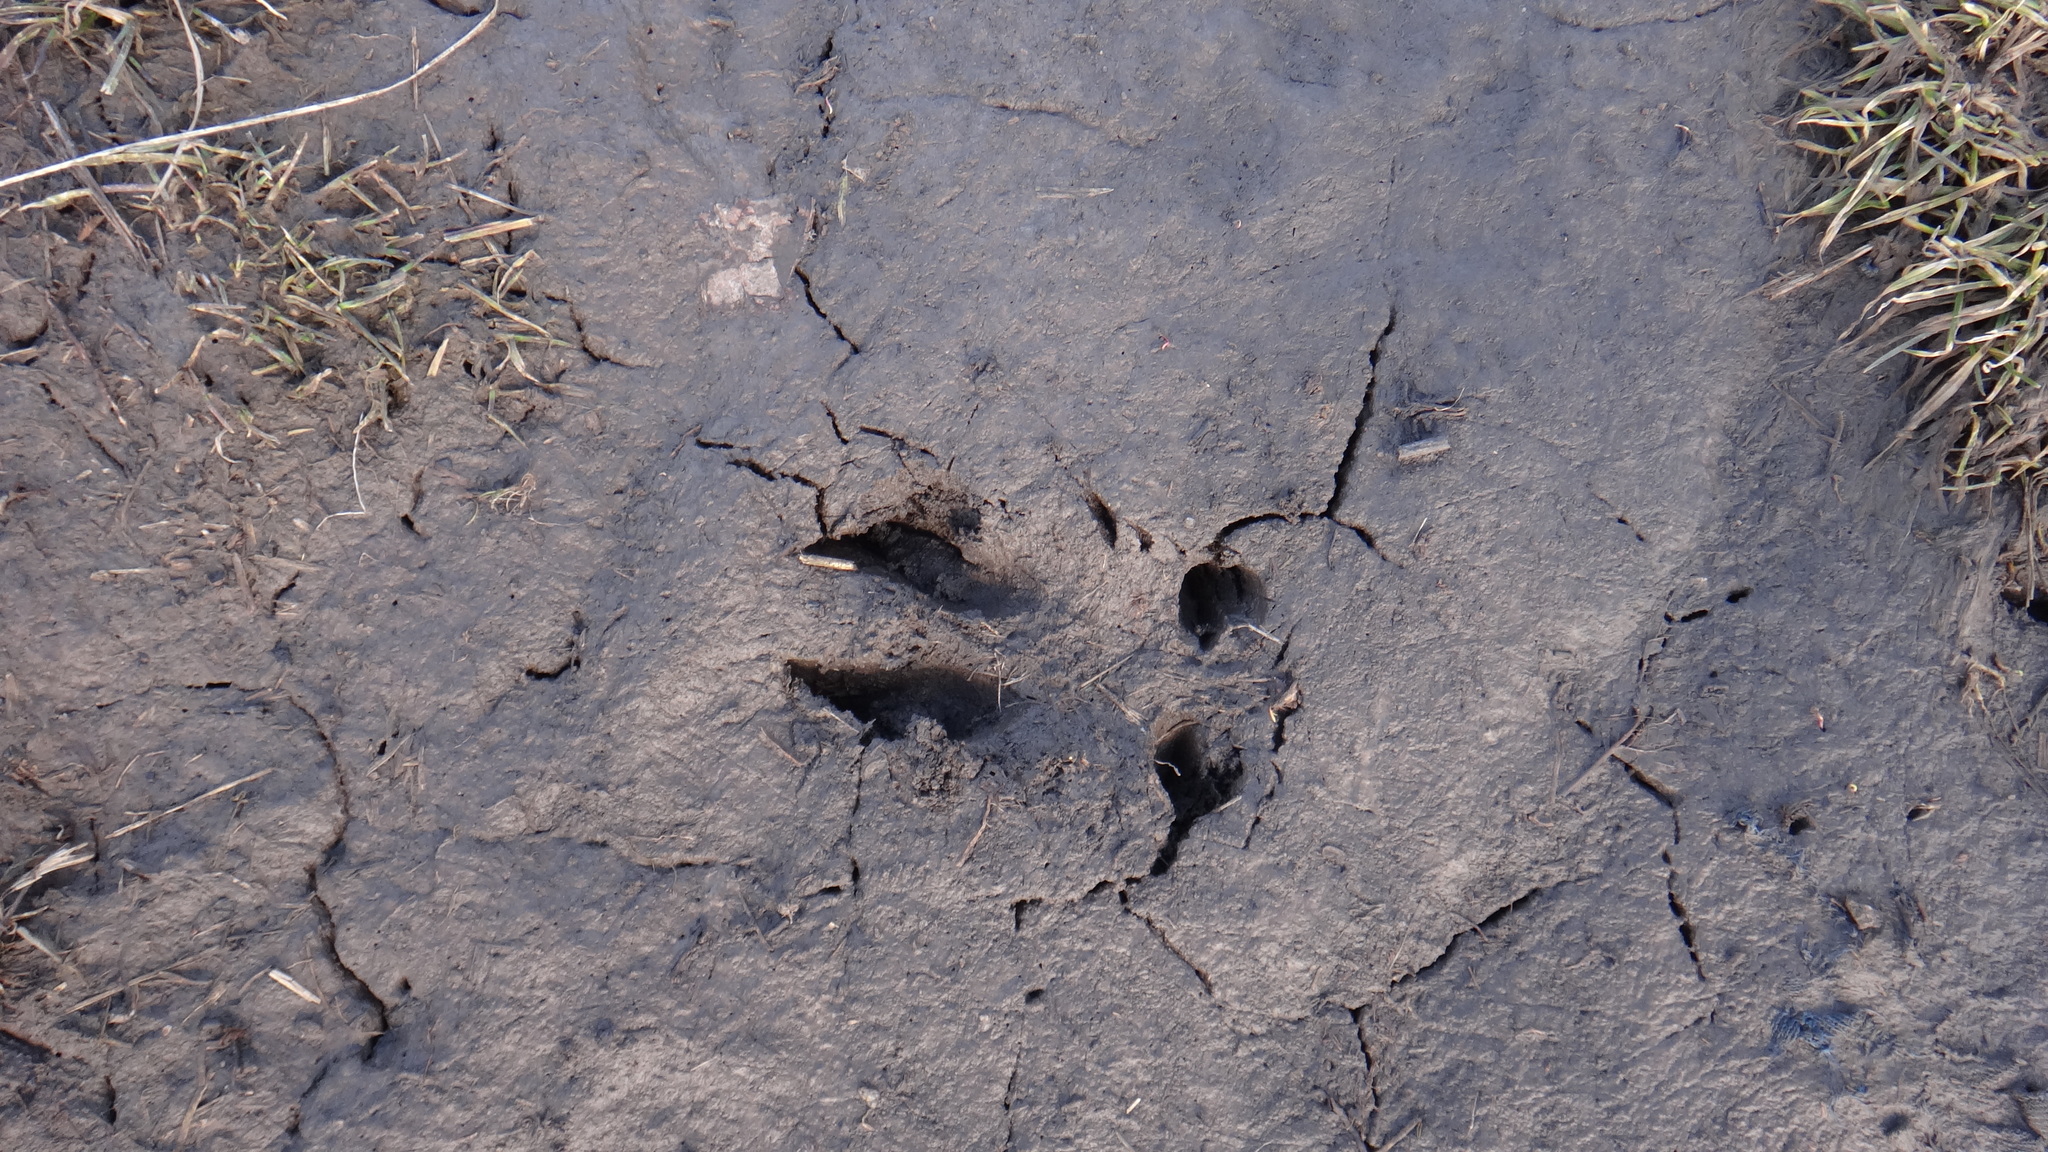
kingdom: Animalia
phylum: Chordata
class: Mammalia
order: Artiodactyla
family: Cervidae
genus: Capreolus
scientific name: Capreolus capreolus
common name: Western roe deer
